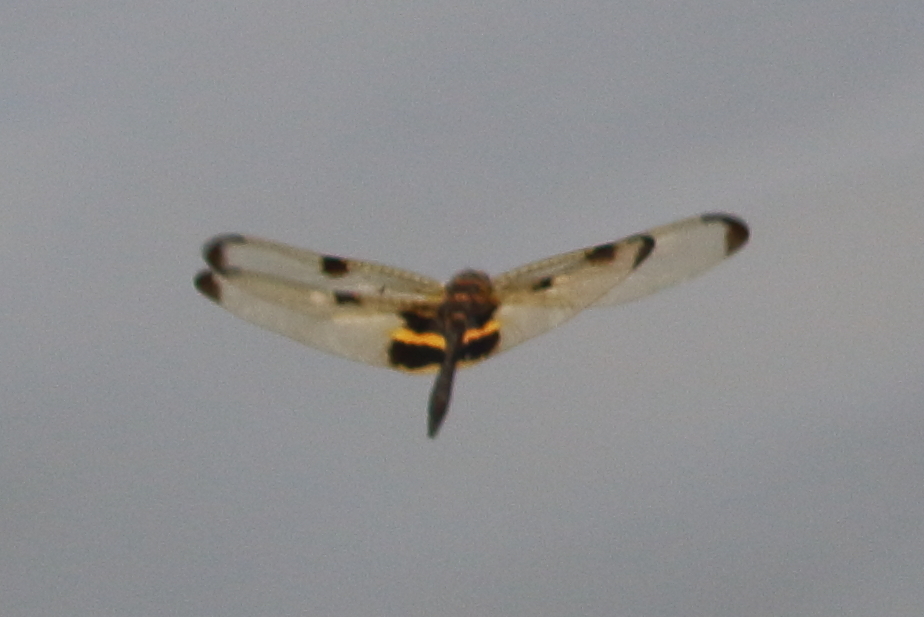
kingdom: Animalia
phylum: Arthropoda
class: Insecta
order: Odonata
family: Libellulidae
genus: Rhyothemis
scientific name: Rhyothemis phyllis
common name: Yellow-barred flutterer
